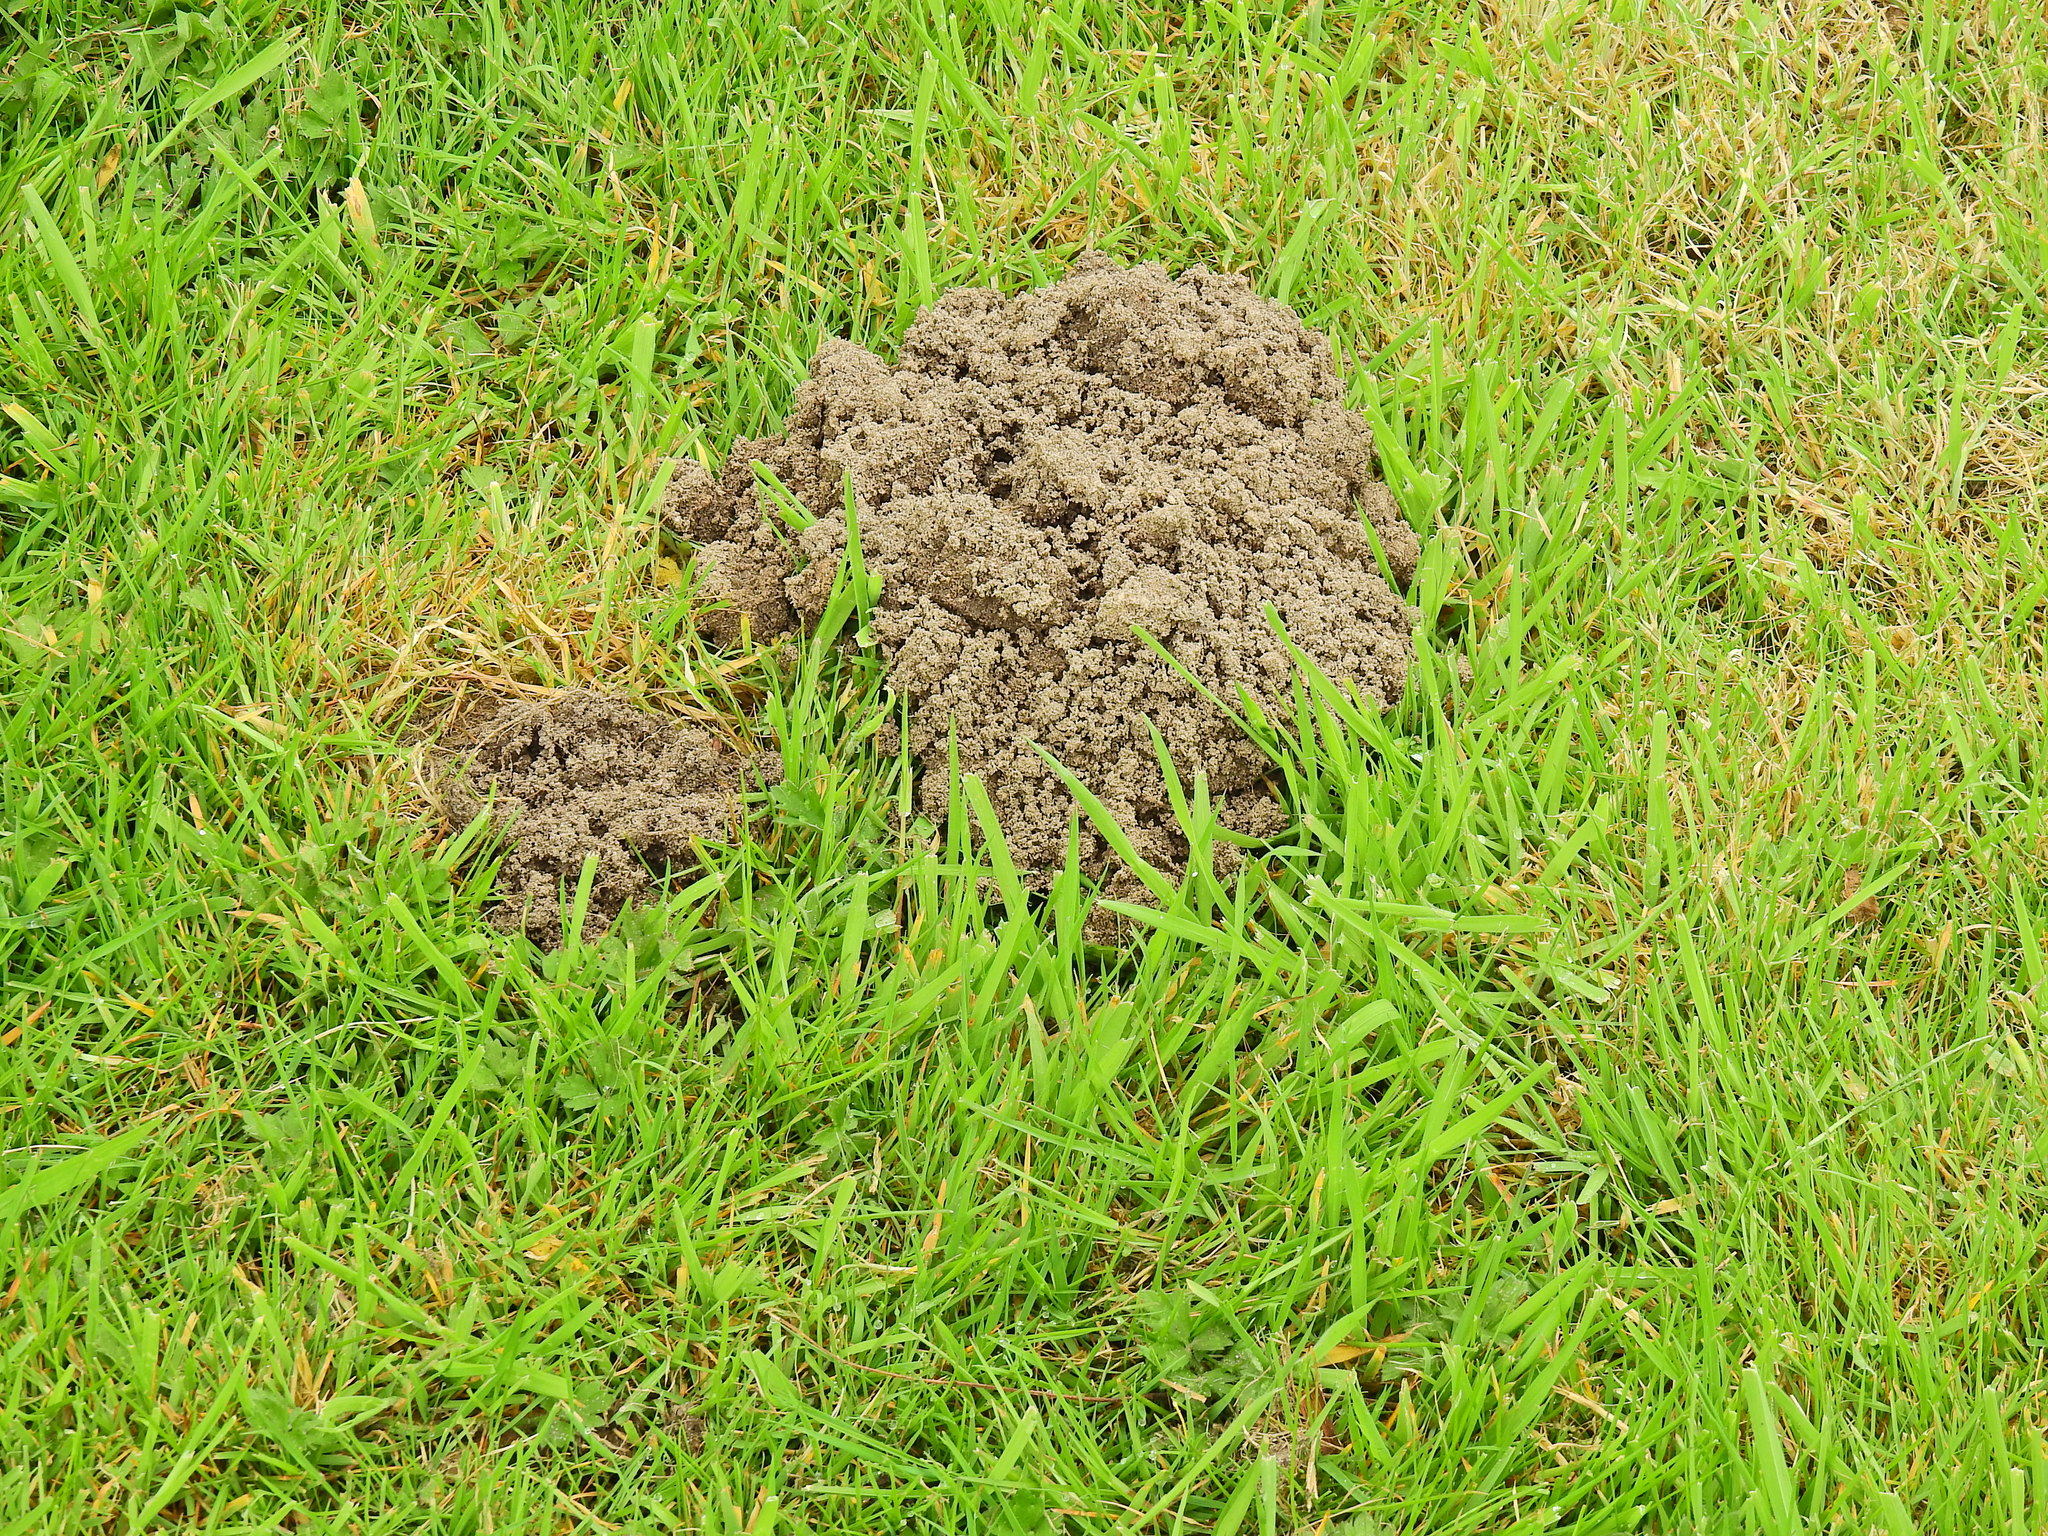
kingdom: Animalia
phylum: Chordata
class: Mammalia
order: Soricomorpha
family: Talpidae
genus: Talpa
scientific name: Talpa europaea
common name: European mole
